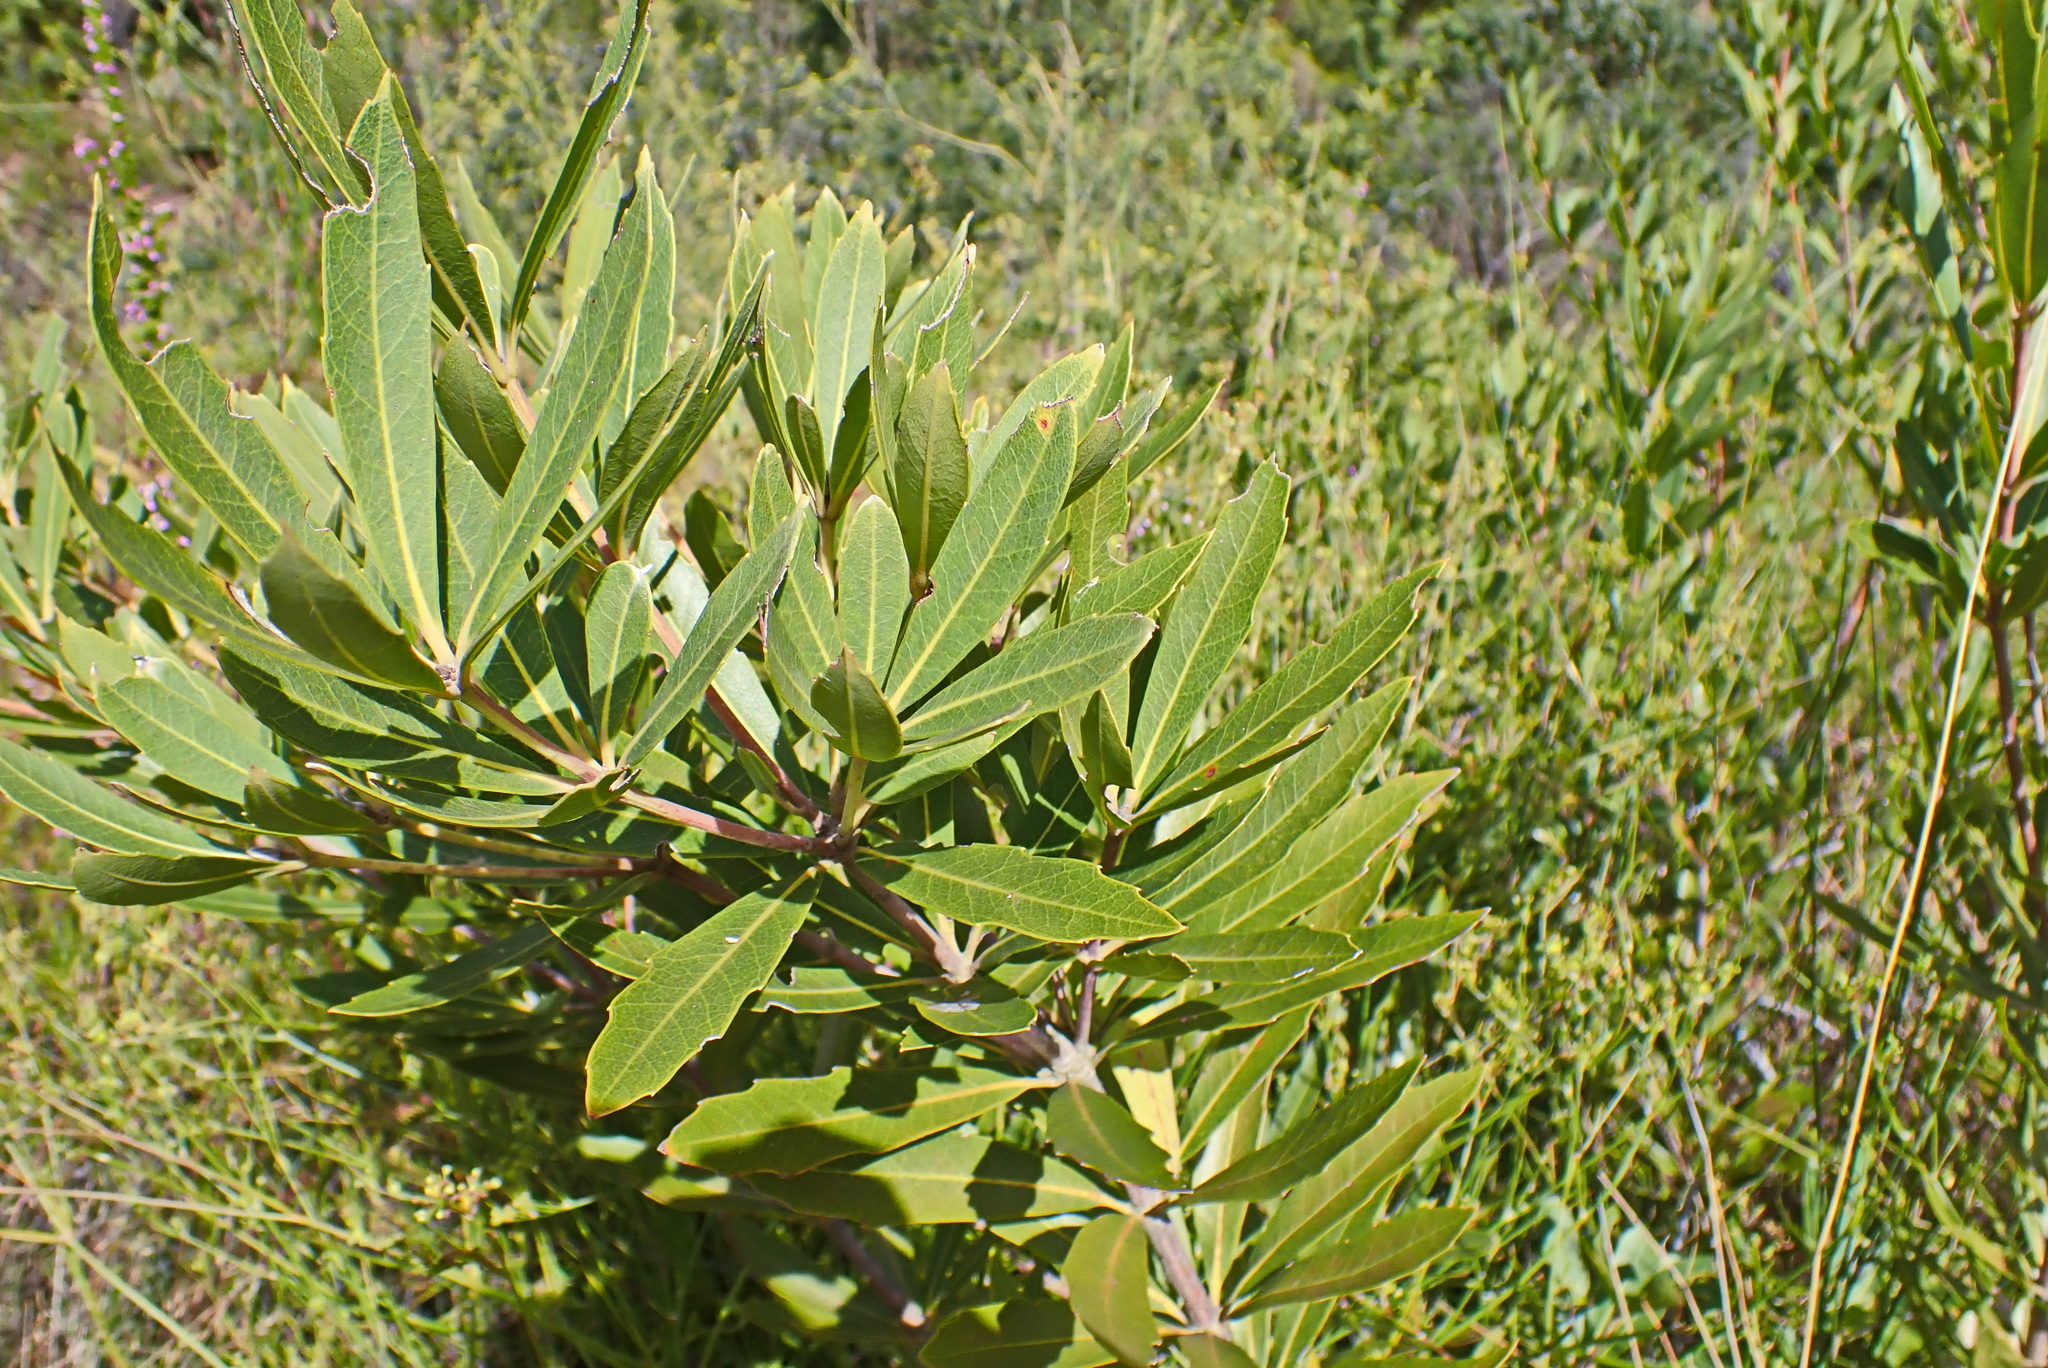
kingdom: Plantae
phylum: Tracheophyta
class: Magnoliopsida
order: Proteales
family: Proteaceae
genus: Brabejum
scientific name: Brabejum stellatifolium
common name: Wild almond
